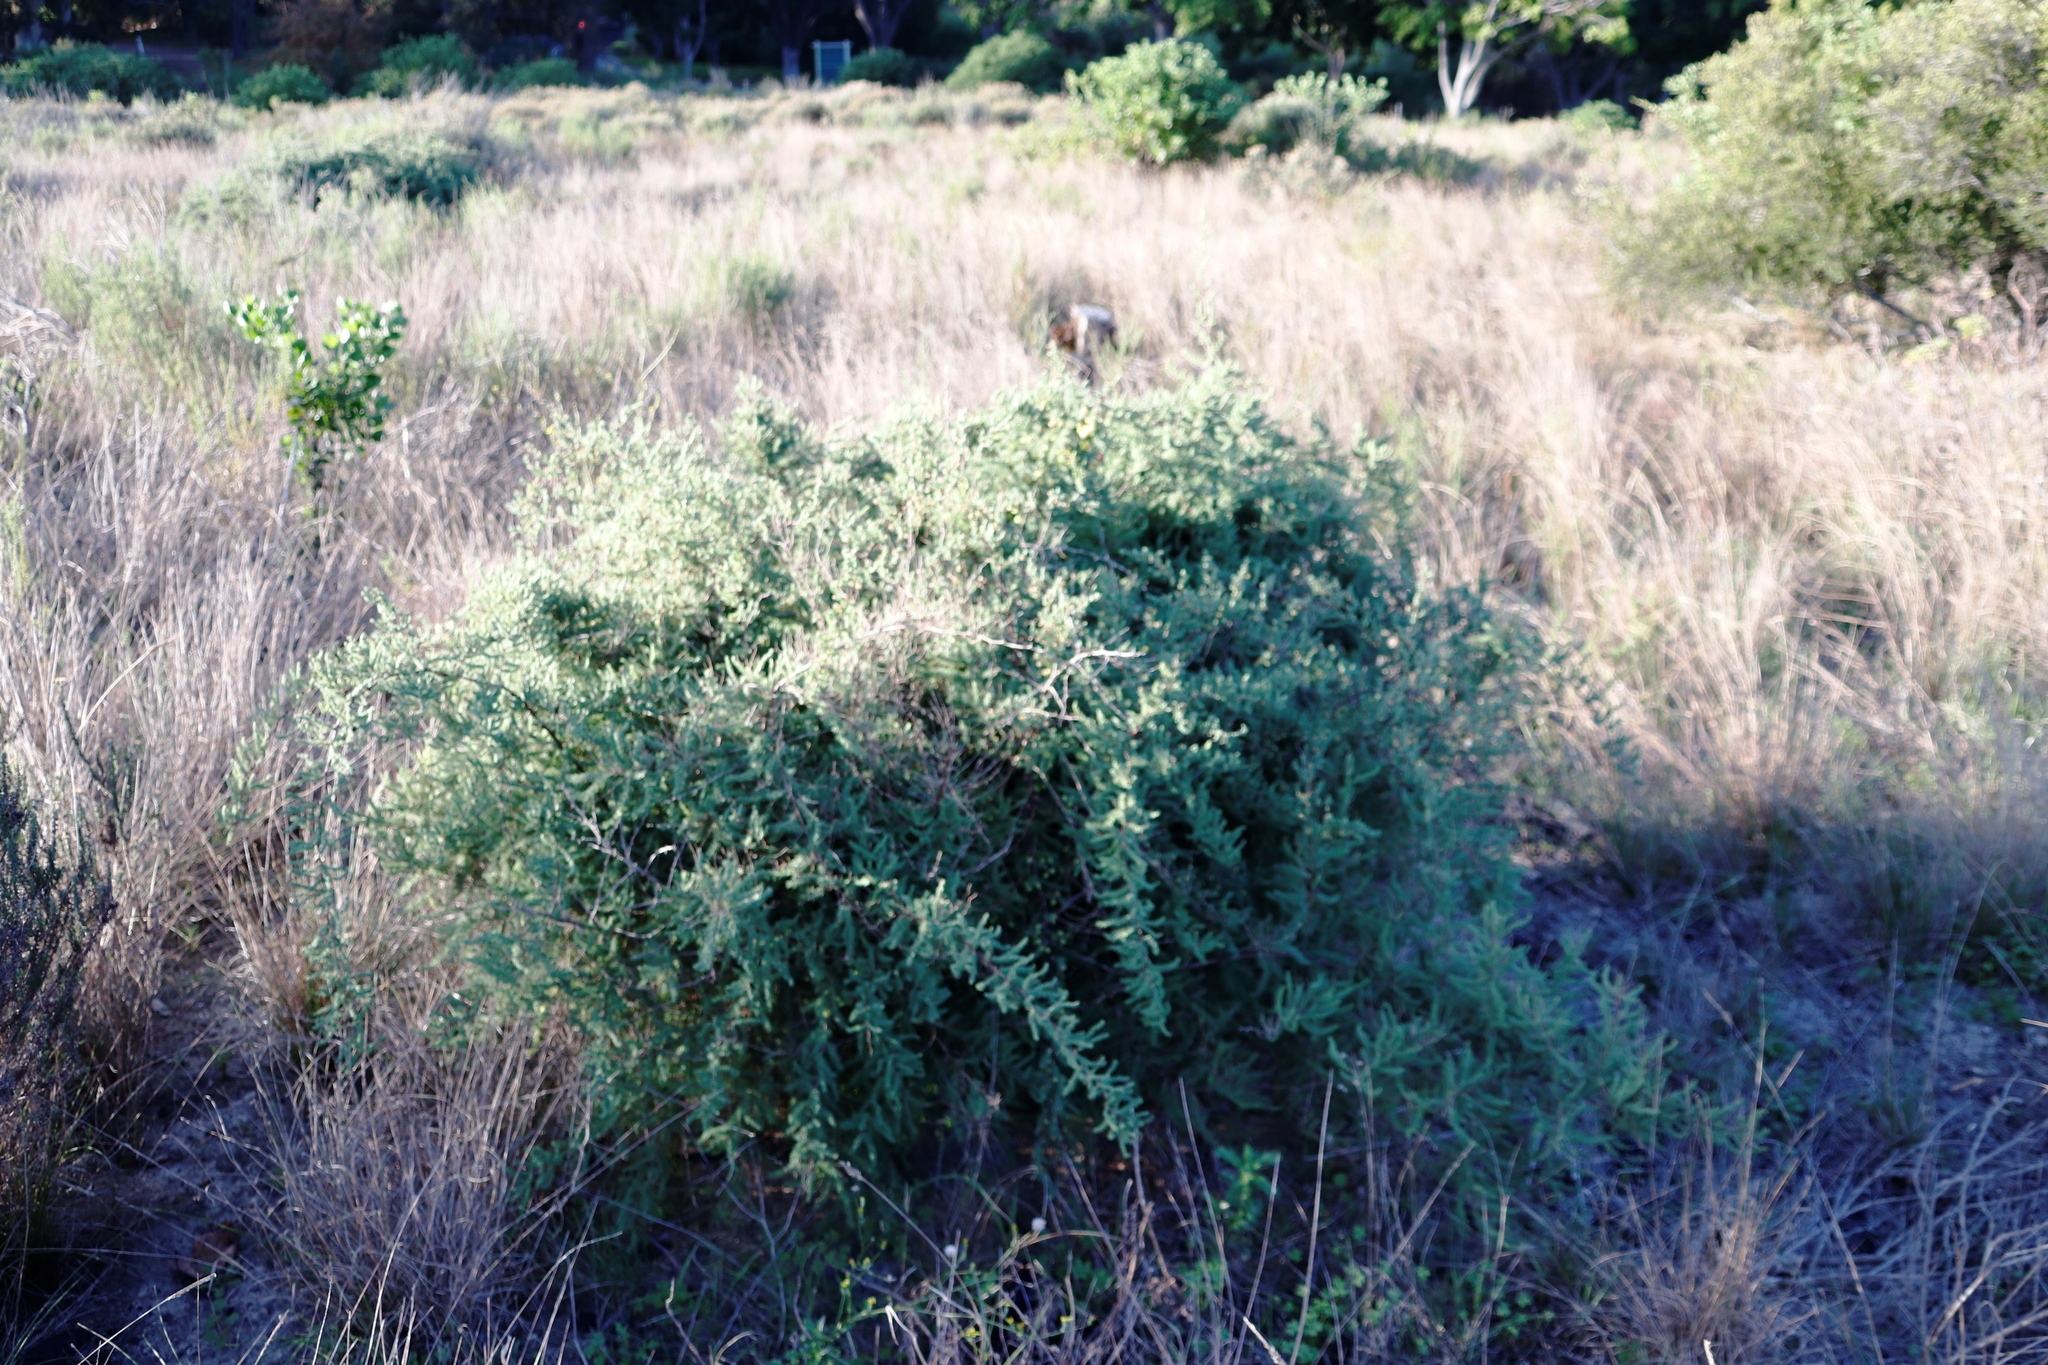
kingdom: Plantae
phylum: Tracheophyta
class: Liliopsida
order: Asparagales
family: Asparagaceae
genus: Asparagus
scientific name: Asparagus rubicundus
